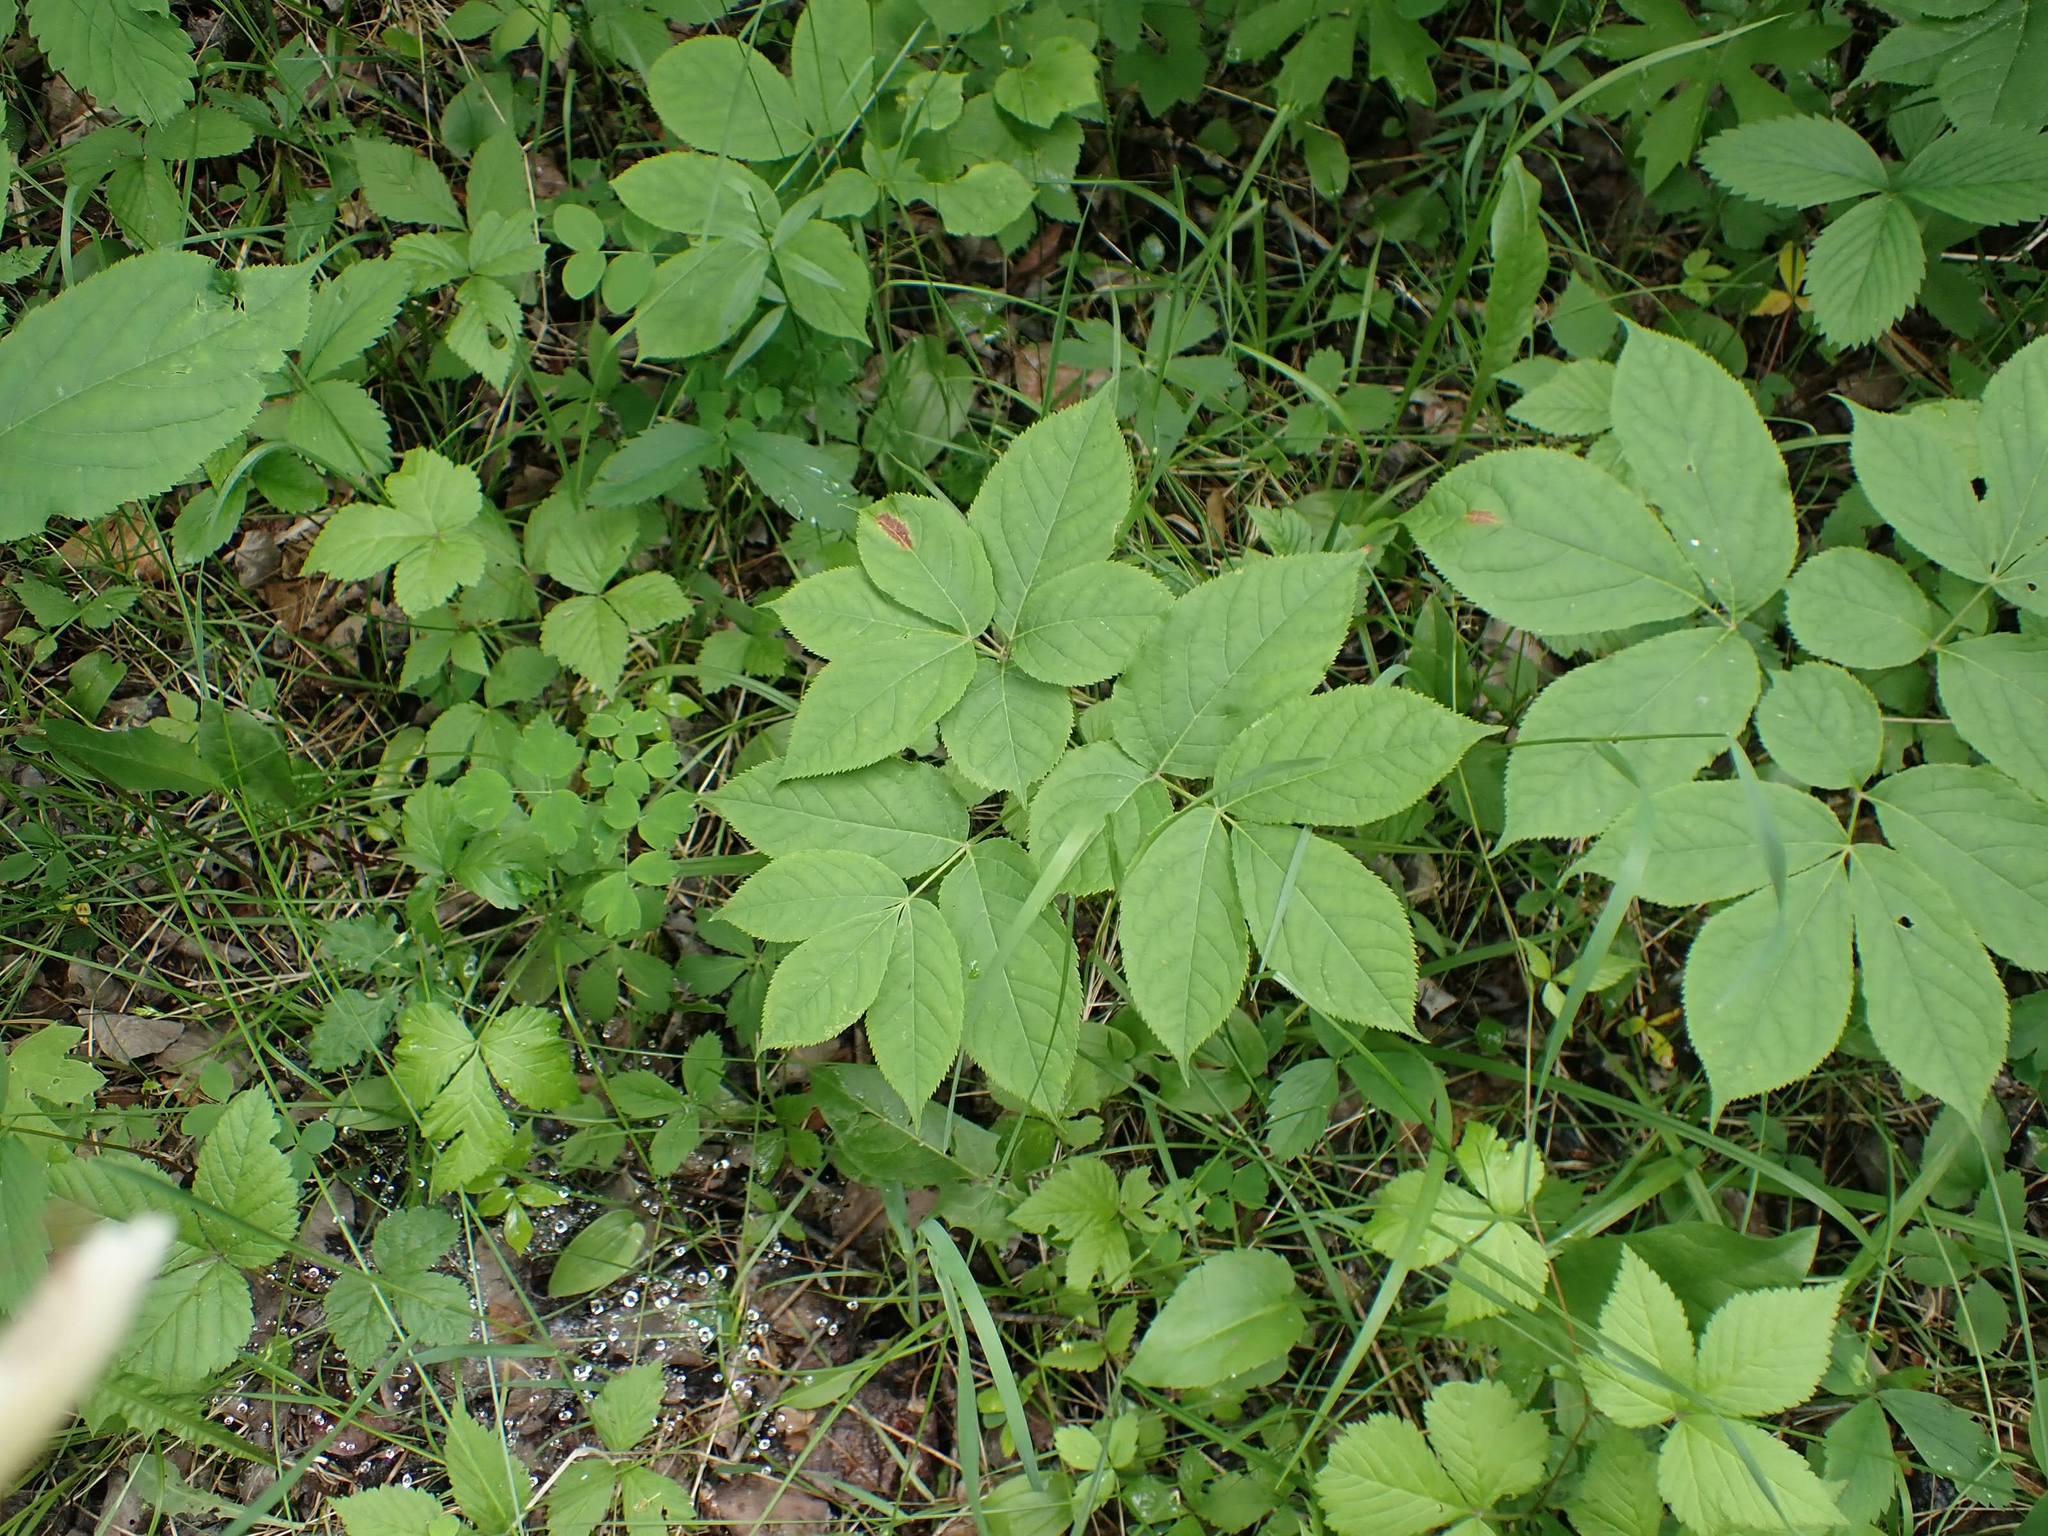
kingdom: Plantae
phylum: Tracheophyta
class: Magnoliopsida
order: Apiales
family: Araliaceae
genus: Aralia
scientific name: Aralia nudicaulis
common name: Wild sarsaparilla
